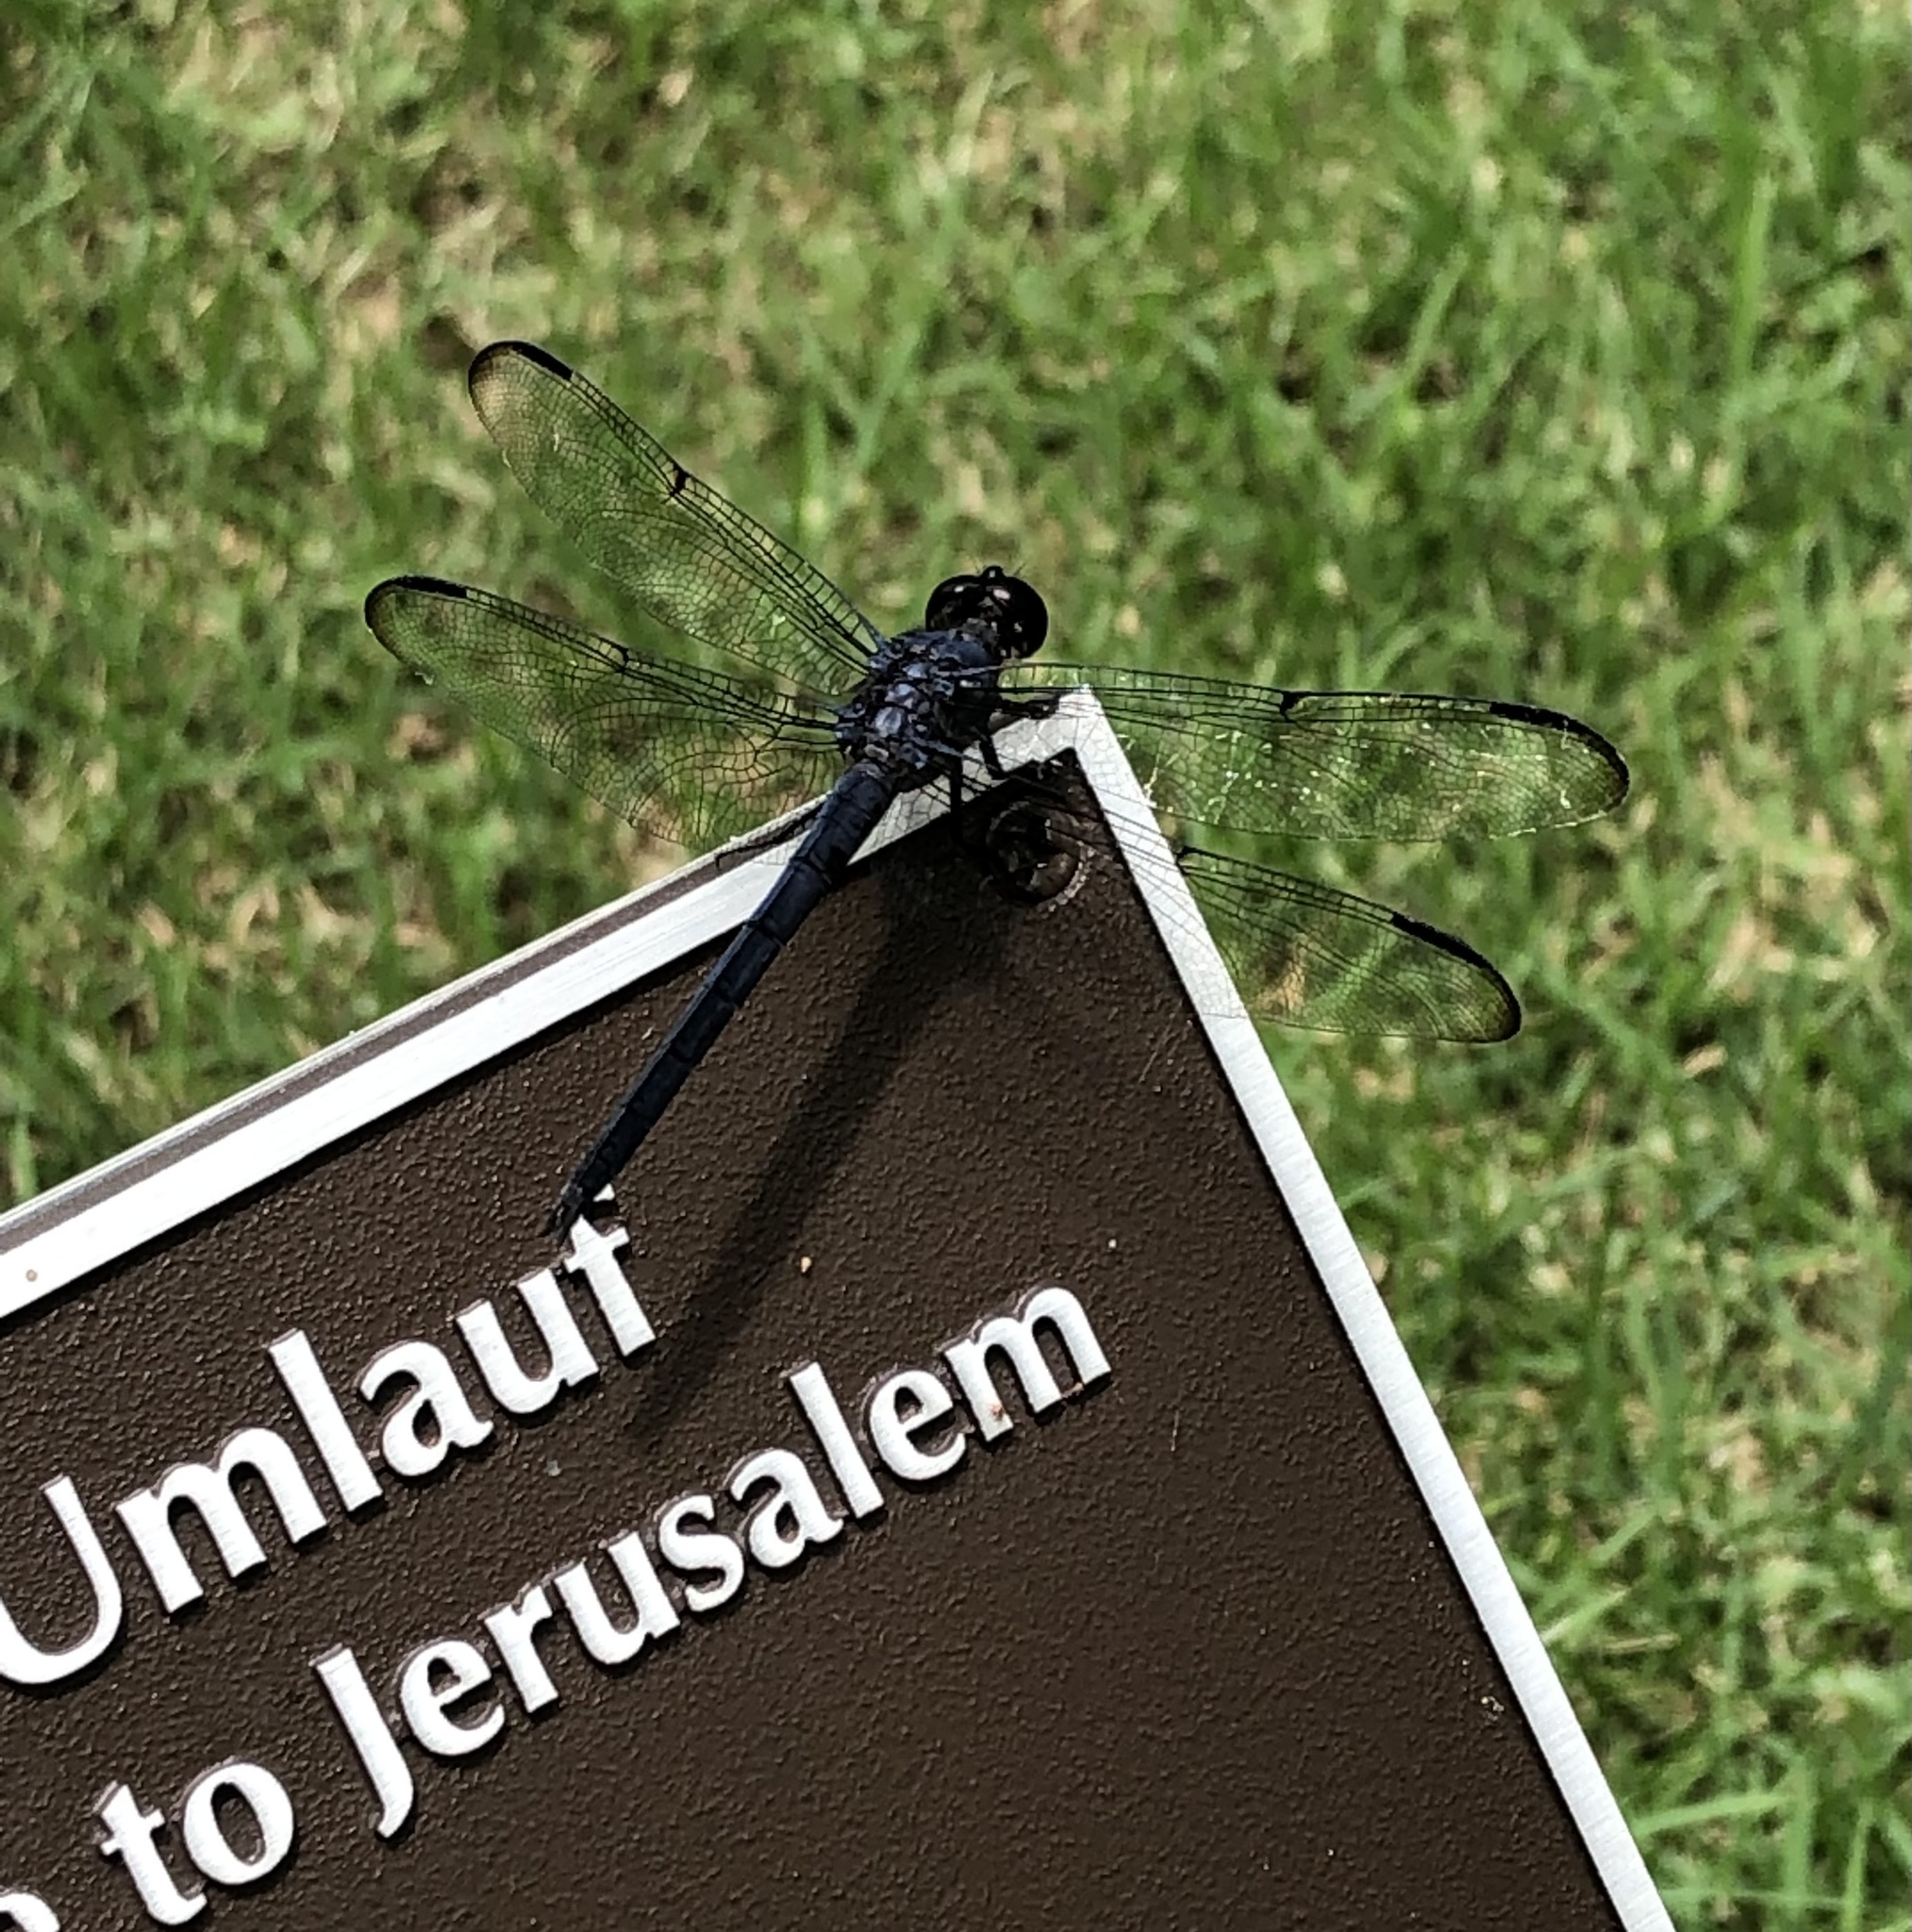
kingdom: Animalia
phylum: Arthropoda
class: Insecta
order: Odonata
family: Libellulidae
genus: Libellula
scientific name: Libellula incesta
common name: Slaty skimmer
